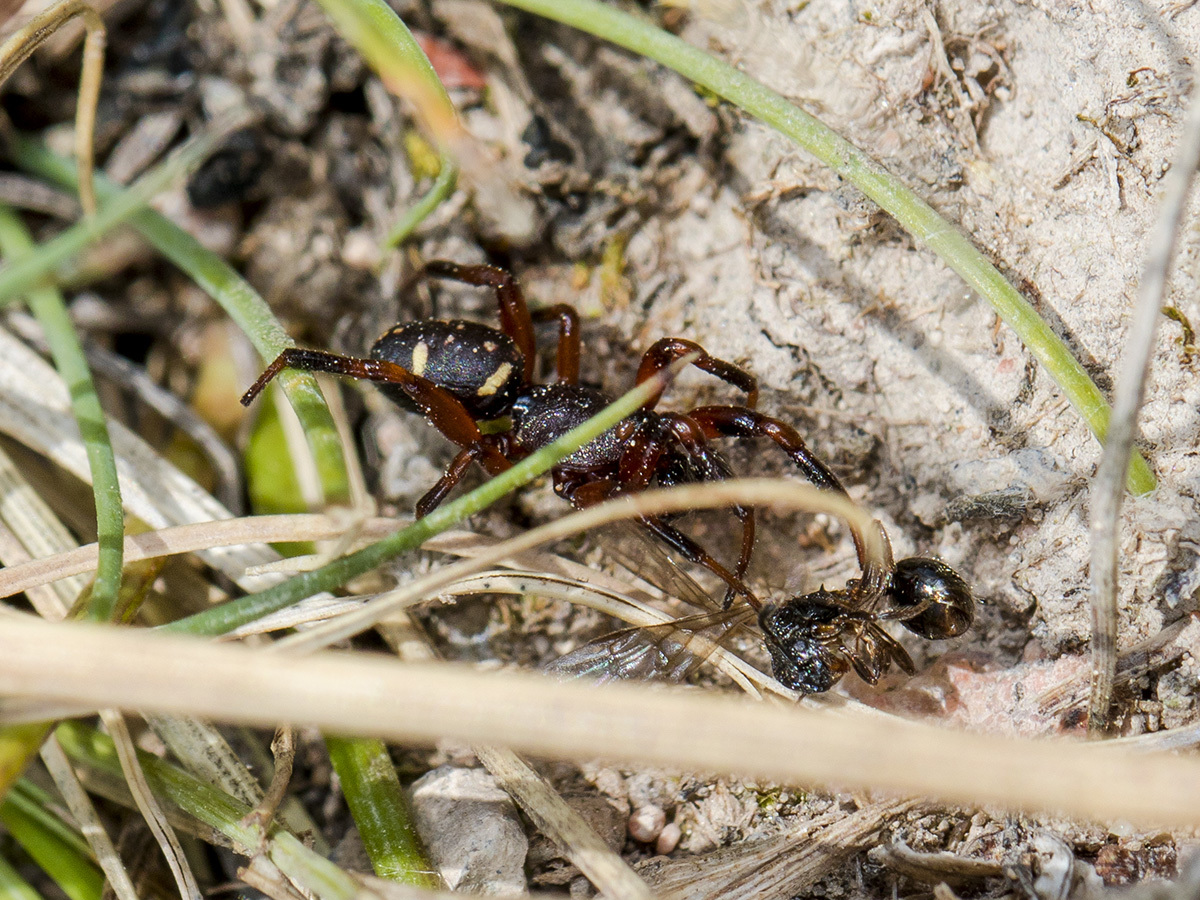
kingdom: Animalia
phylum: Arthropoda
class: Arachnida
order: Araneae
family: Theridiidae
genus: Asagena
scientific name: Asagena phalerata
